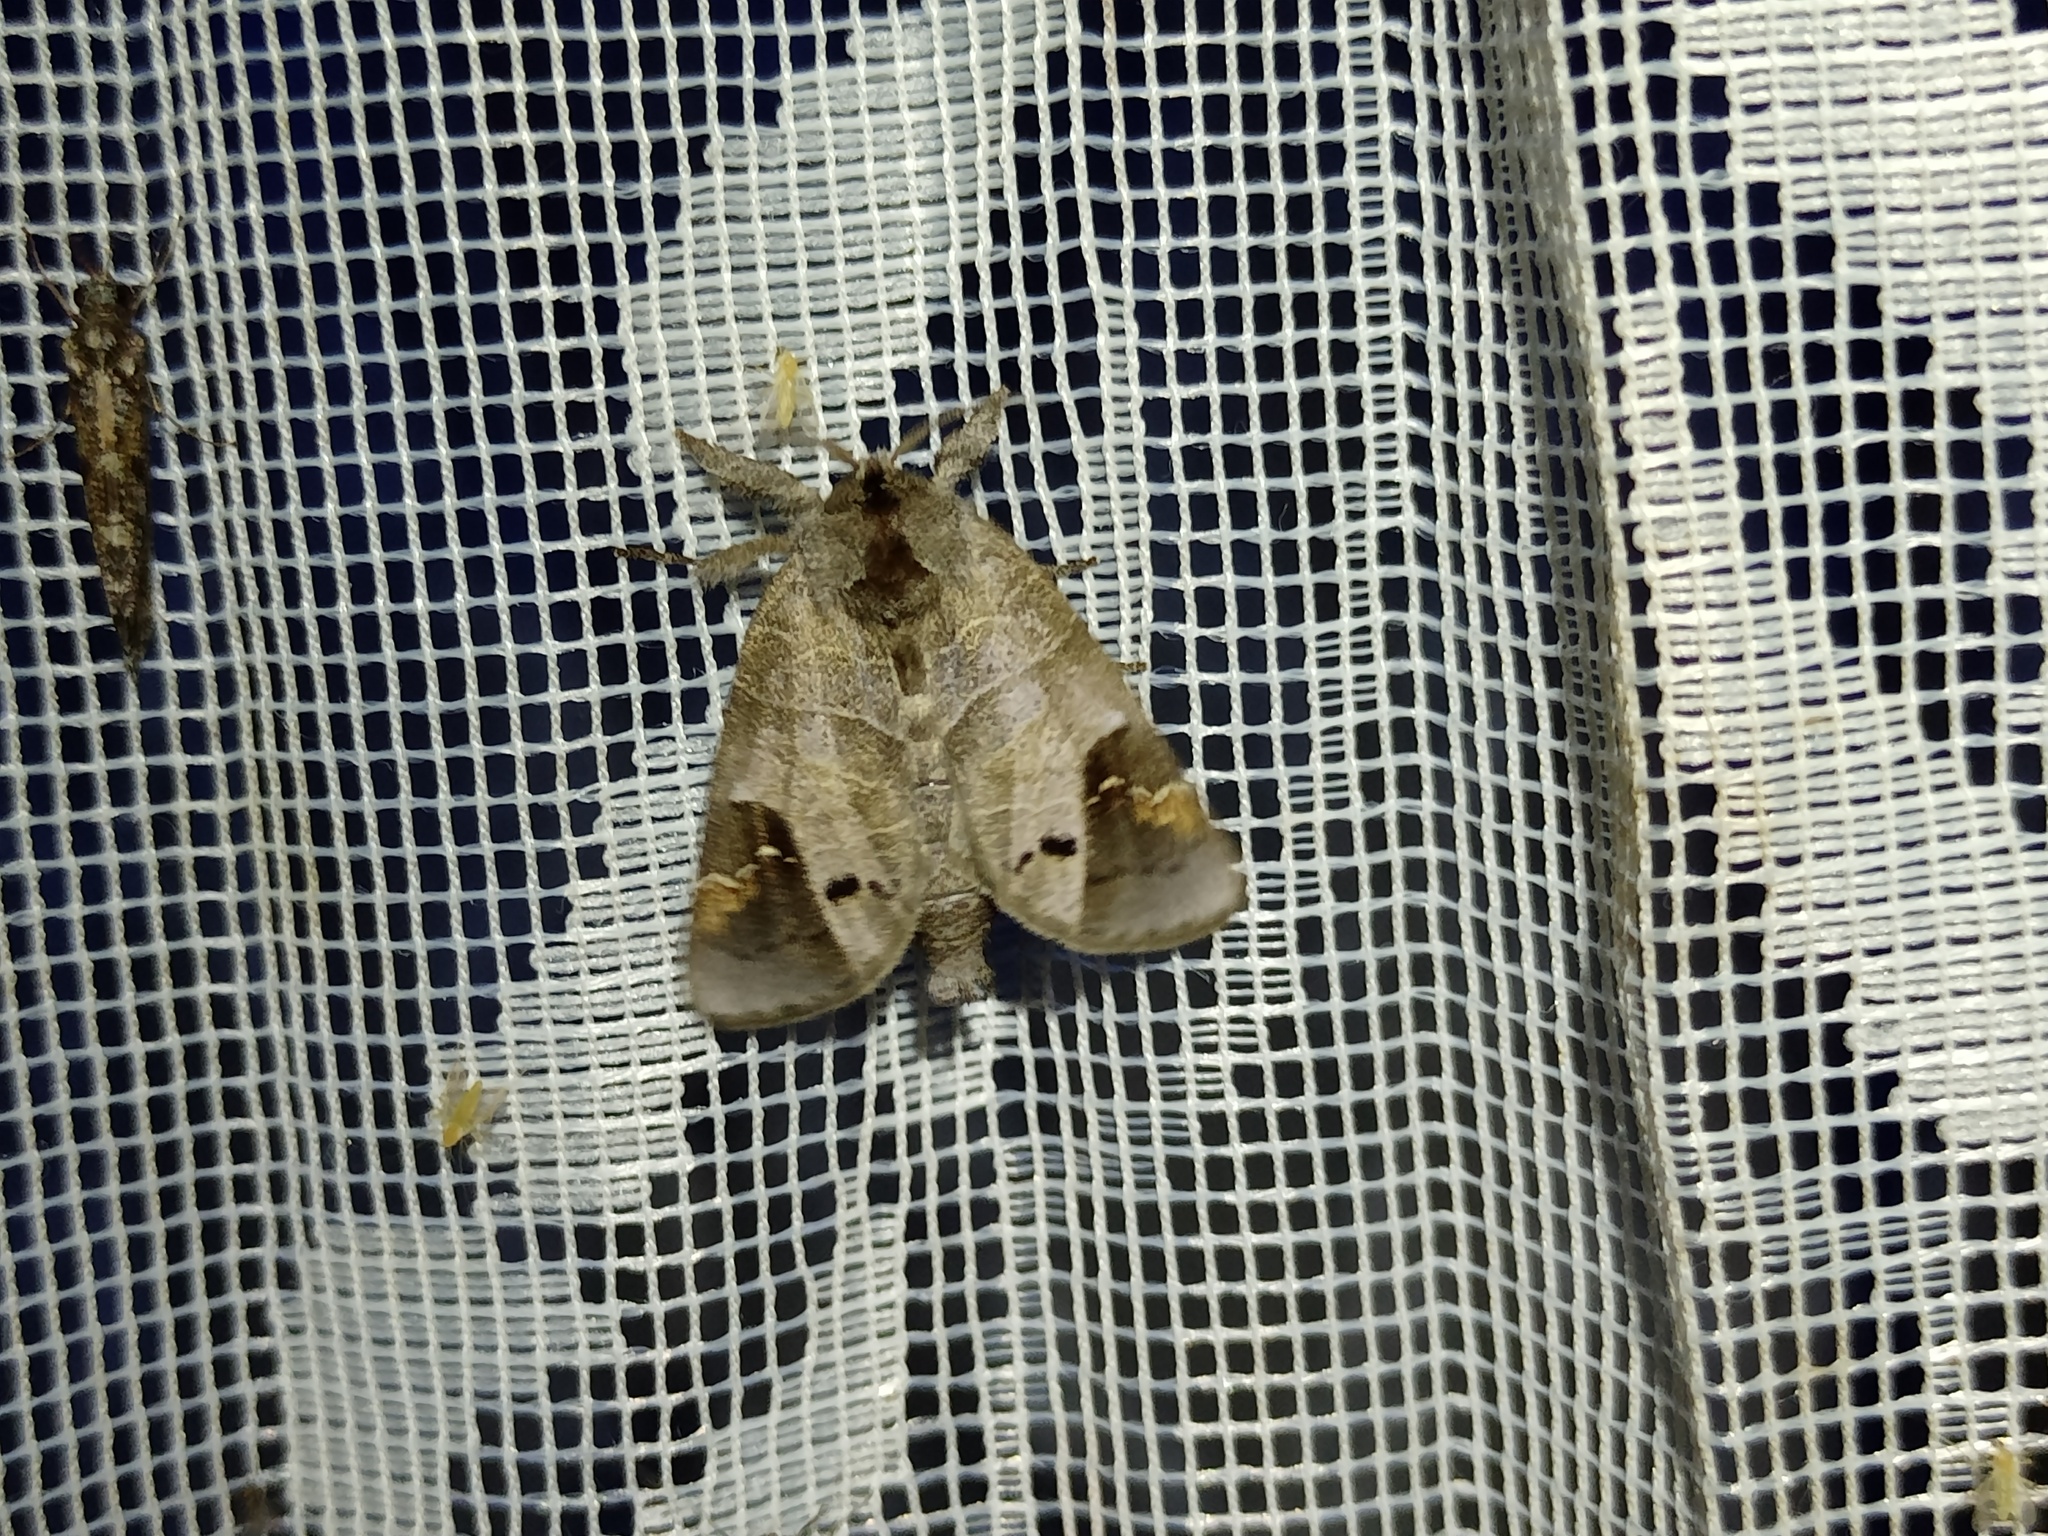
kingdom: Animalia
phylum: Arthropoda
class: Insecta
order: Lepidoptera
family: Notodontidae
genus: Clostera
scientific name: Clostera anachoreta
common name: Scarce chocolate-tip
